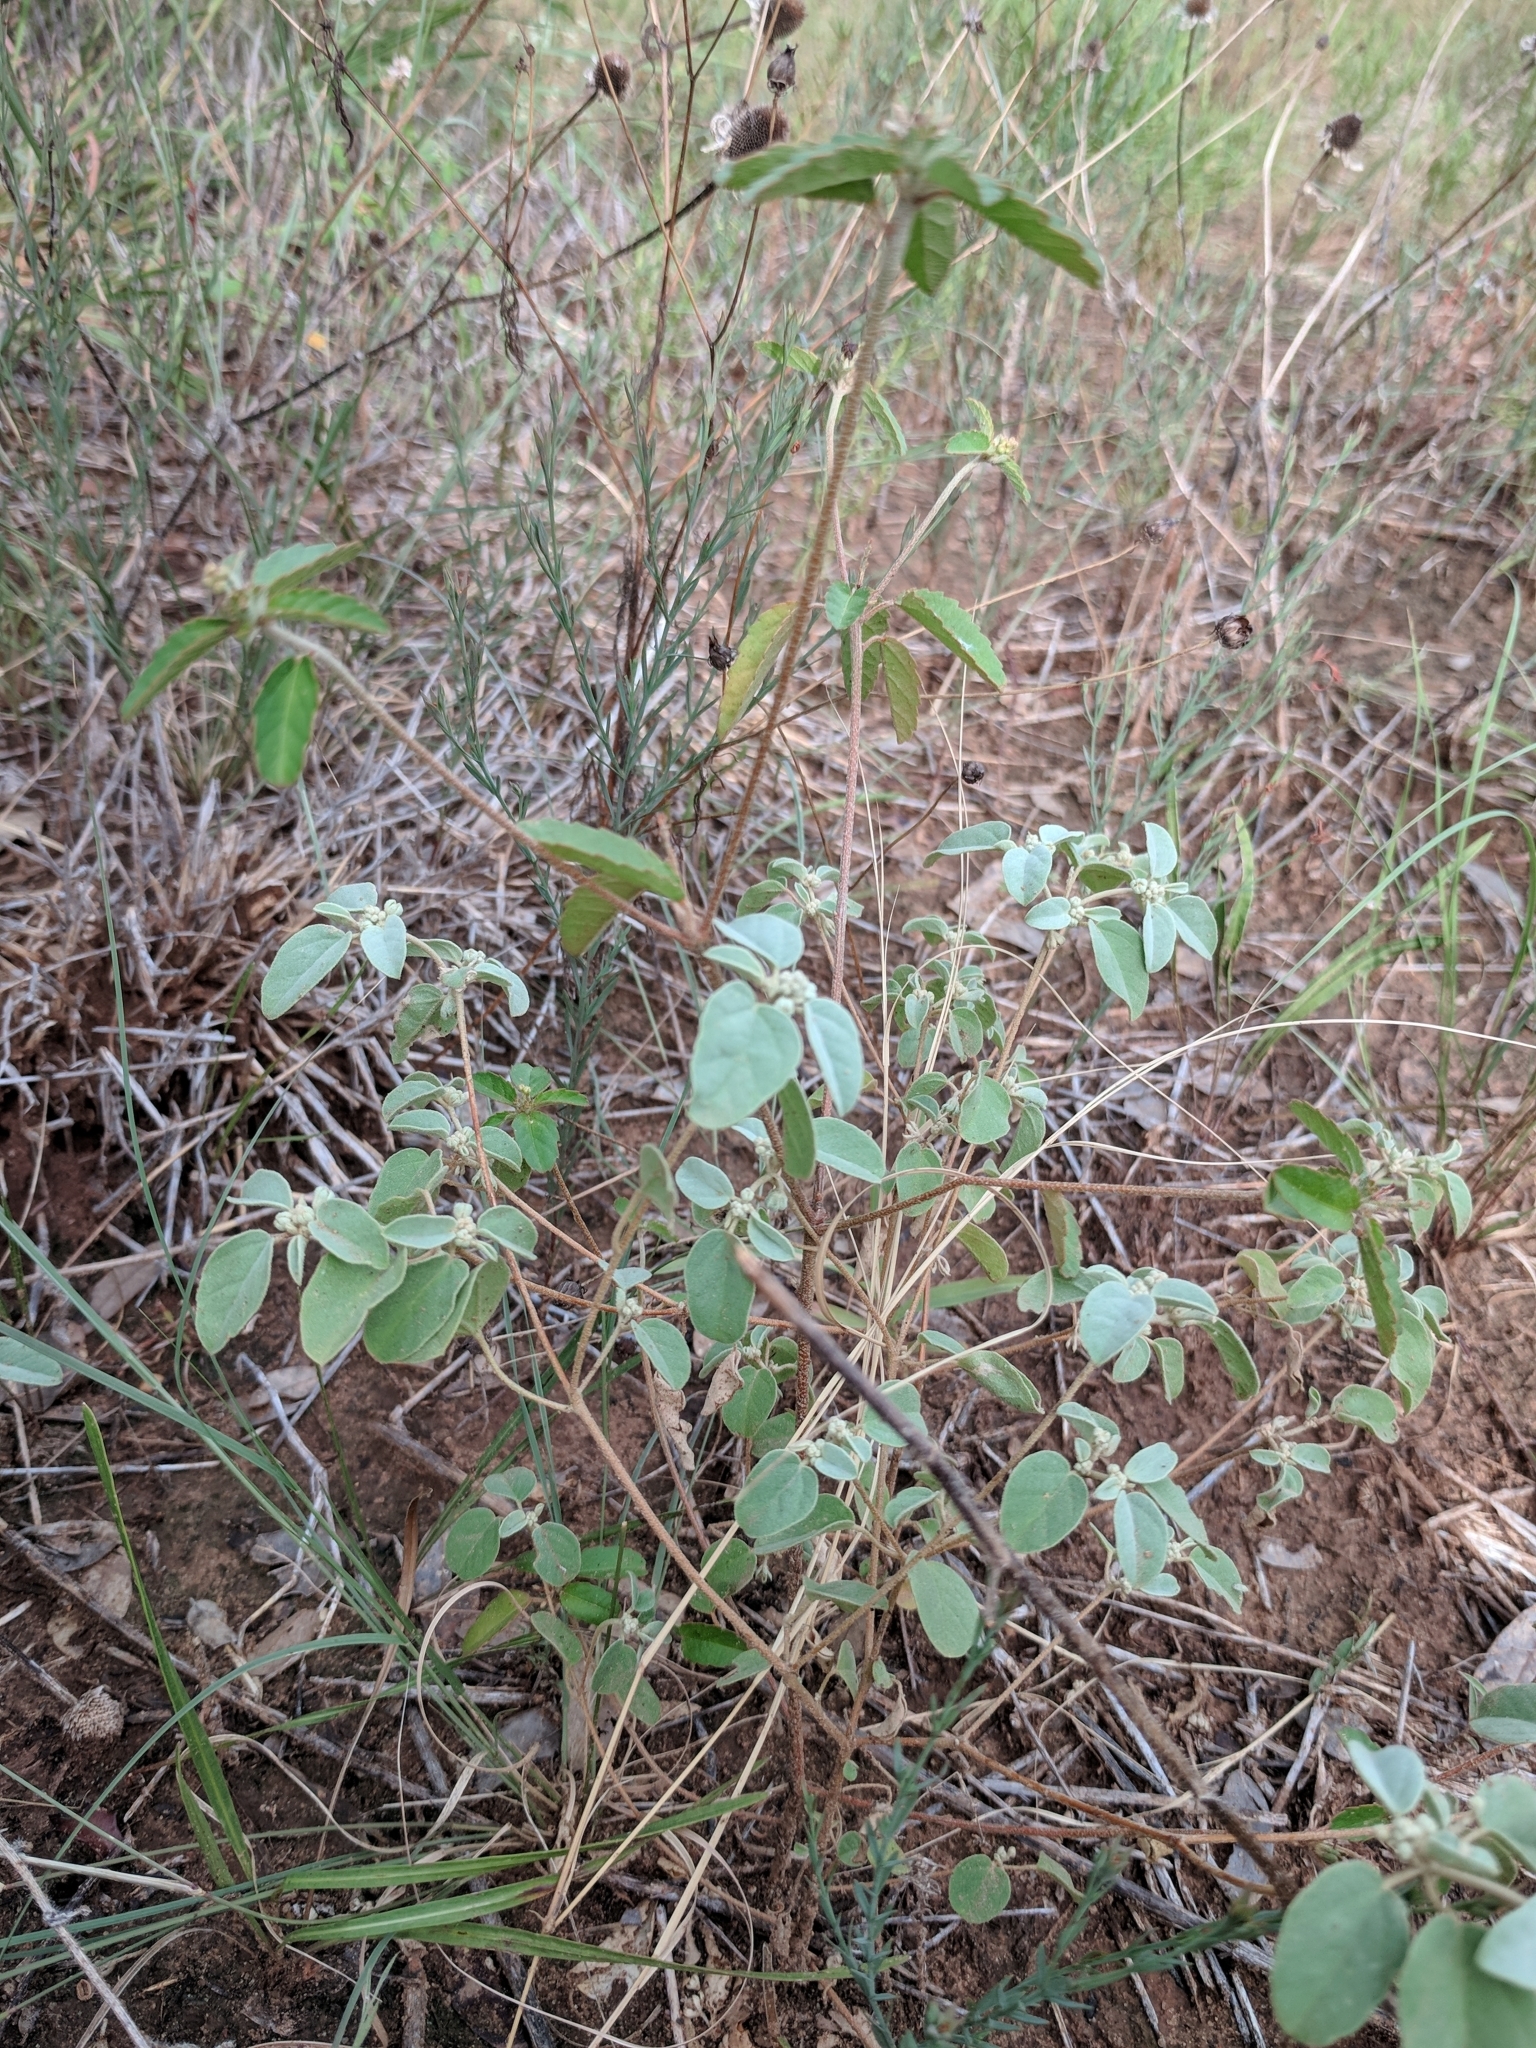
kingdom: Plantae
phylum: Tracheophyta
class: Magnoliopsida
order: Malpighiales
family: Euphorbiaceae
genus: Croton
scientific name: Croton glandulosus
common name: Tropic croton
